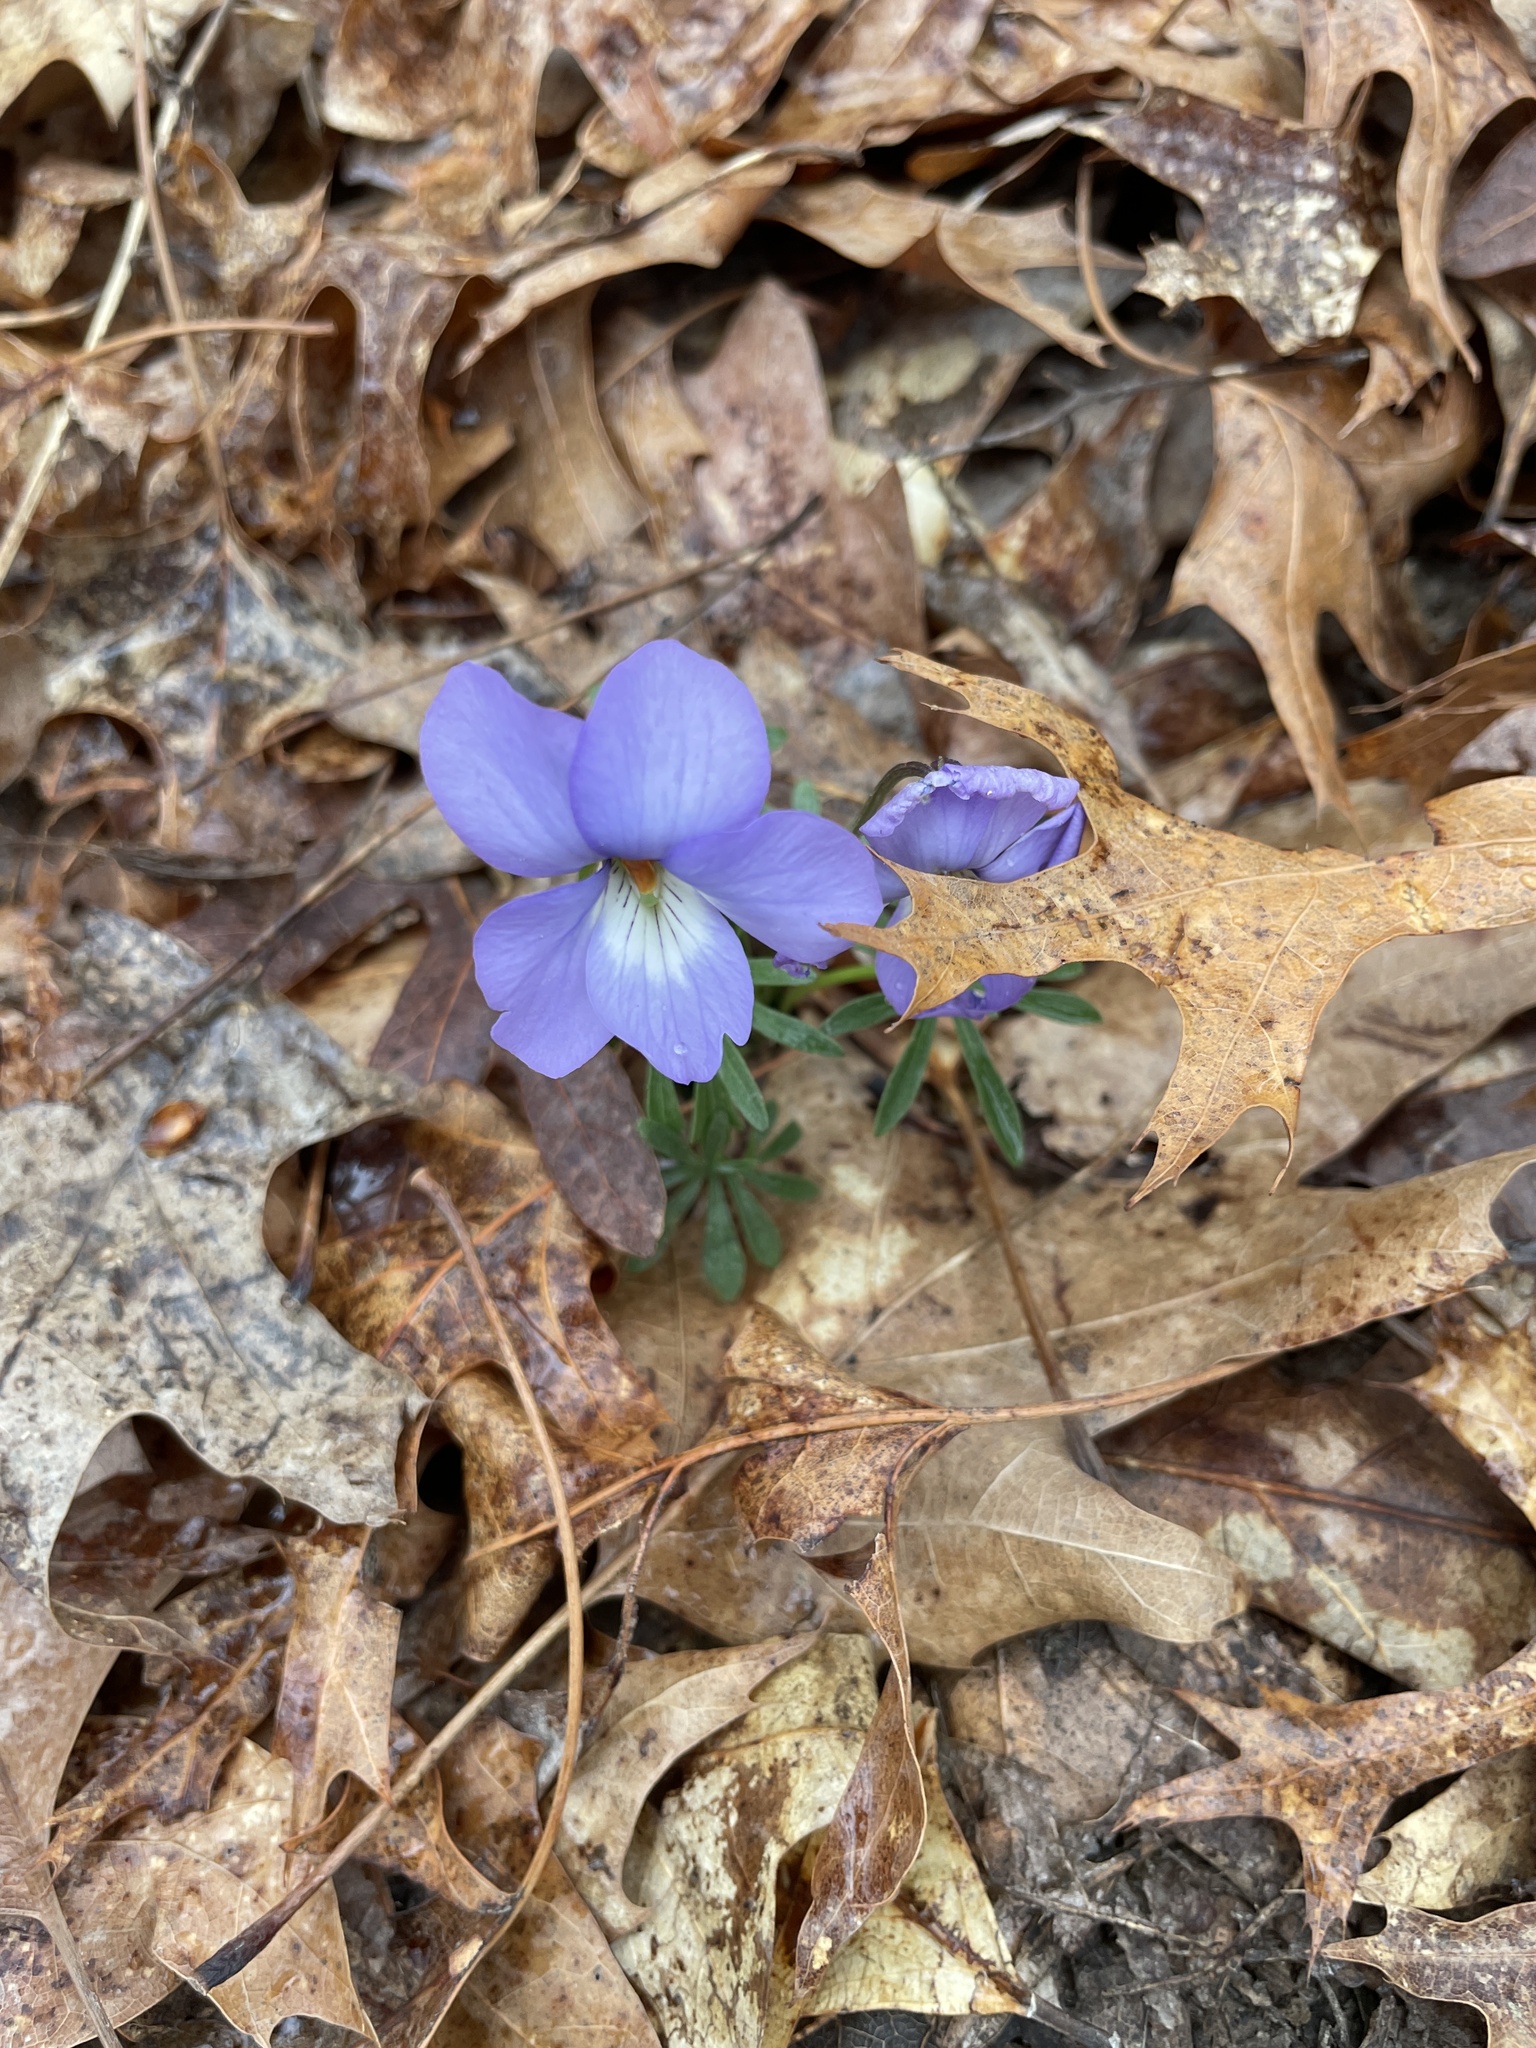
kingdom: Plantae
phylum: Tracheophyta
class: Magnoliopsida
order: Malpighiales
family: Violaceae
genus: Viola
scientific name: Viola pedata
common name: Pansy violet
